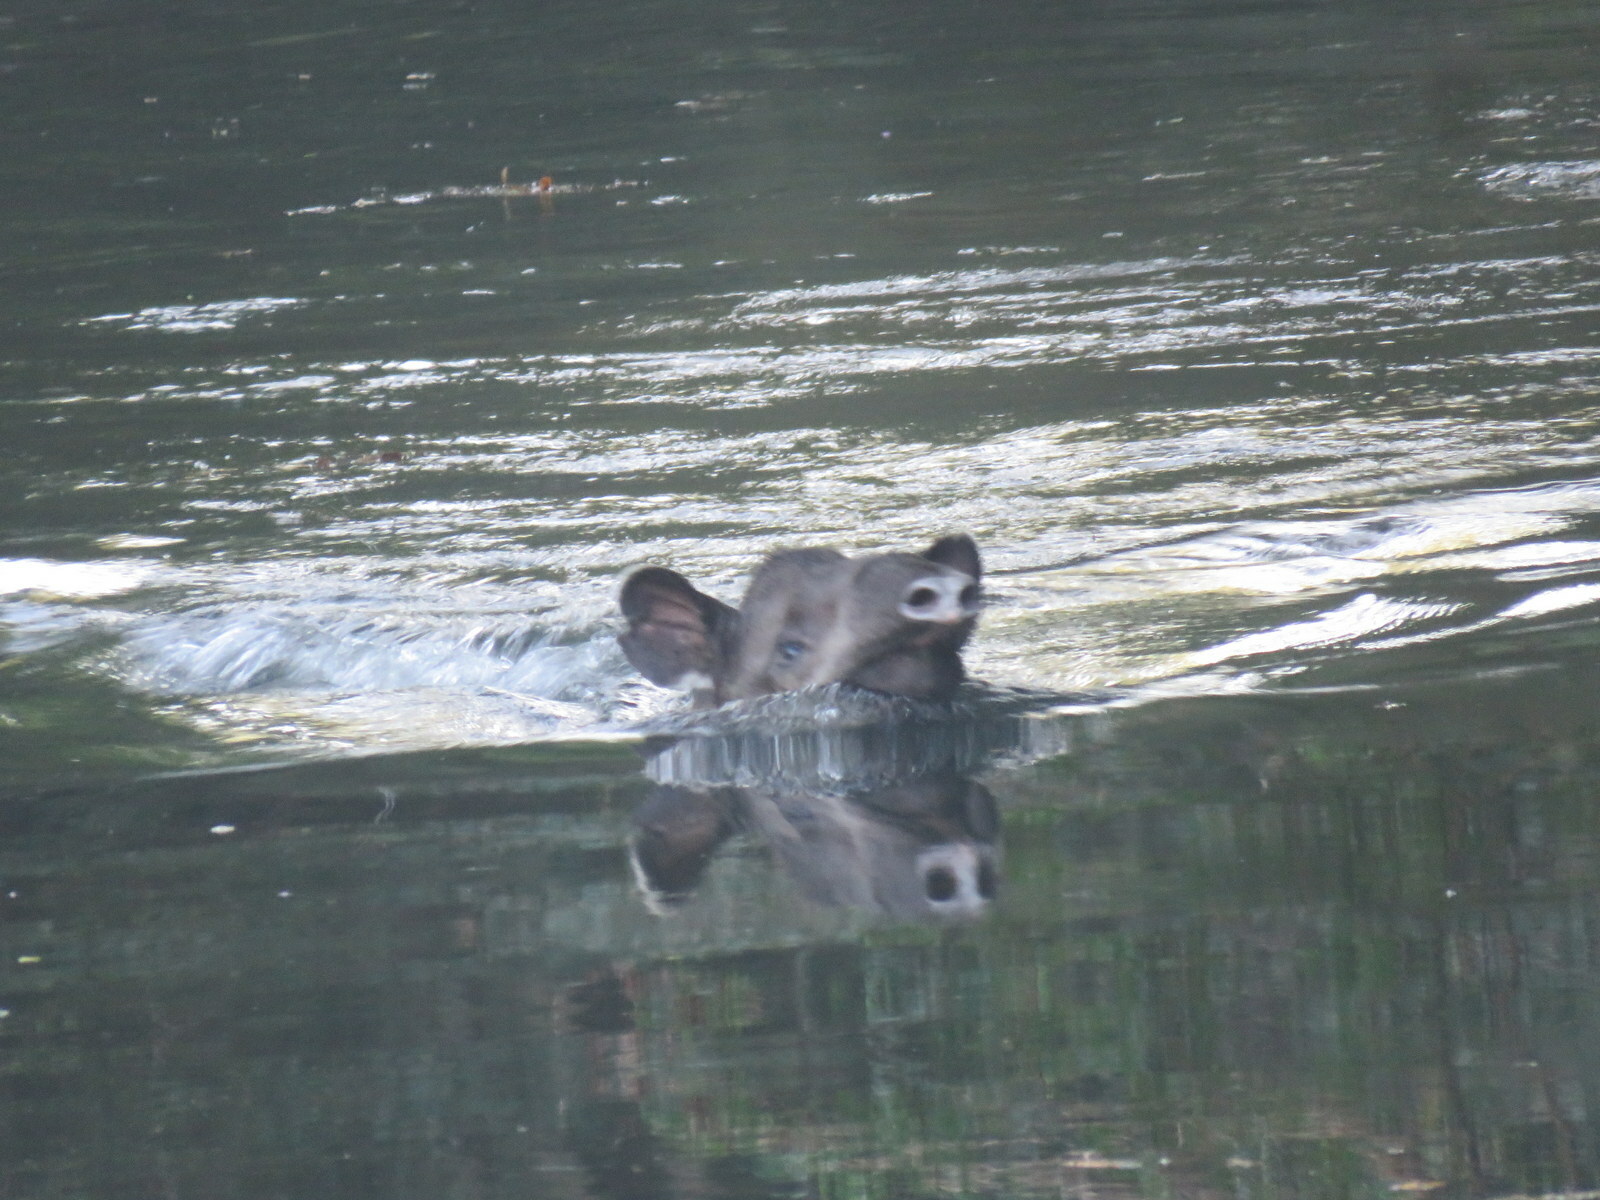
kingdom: Animalia
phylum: Chordata
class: Mammalia
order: Perissodactyla
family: Tapiridae
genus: Tapirus
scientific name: Tapirus terrestris
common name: Brazilian tapir
